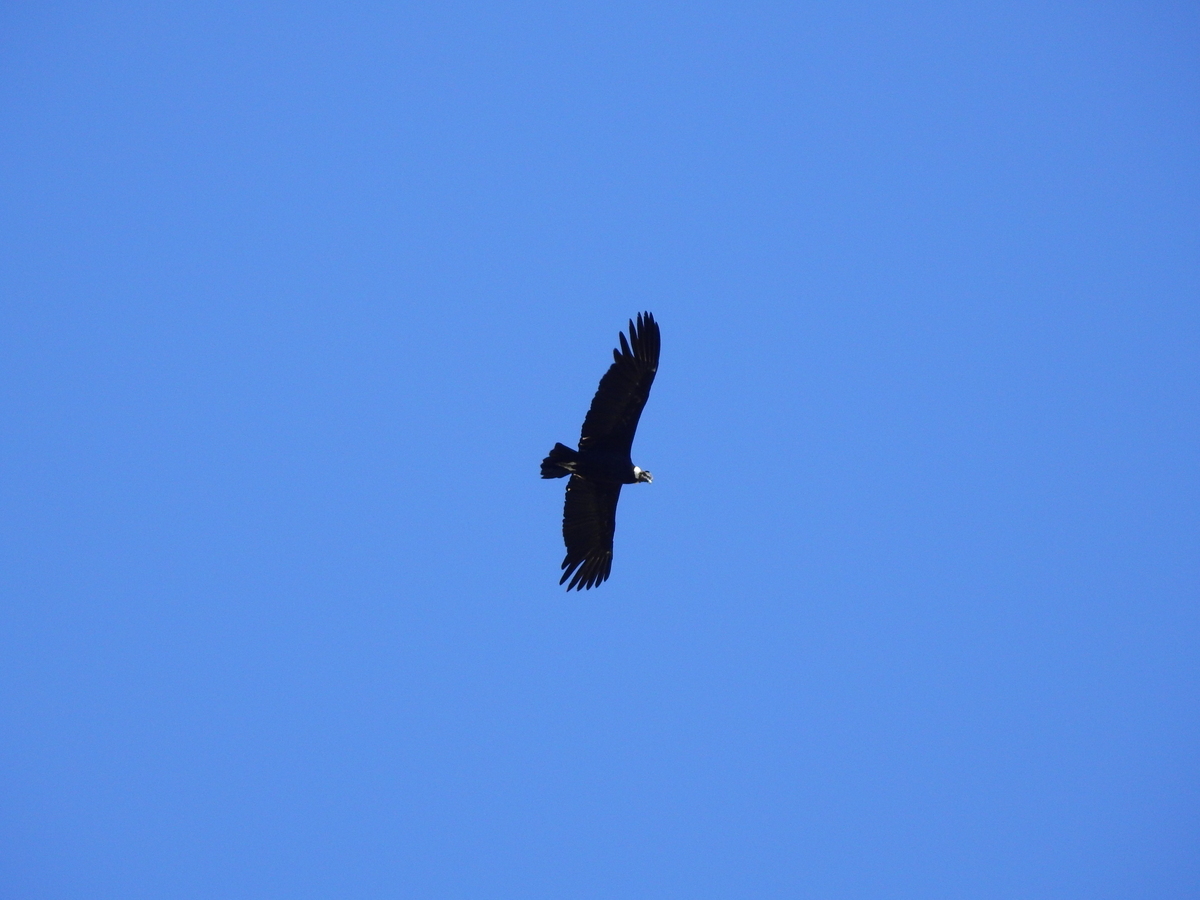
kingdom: Animalia
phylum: Chordata
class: Aves
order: Accipitriformes
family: Cathartidae
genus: Vultur
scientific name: Vultur gryphus
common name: Andean condor
